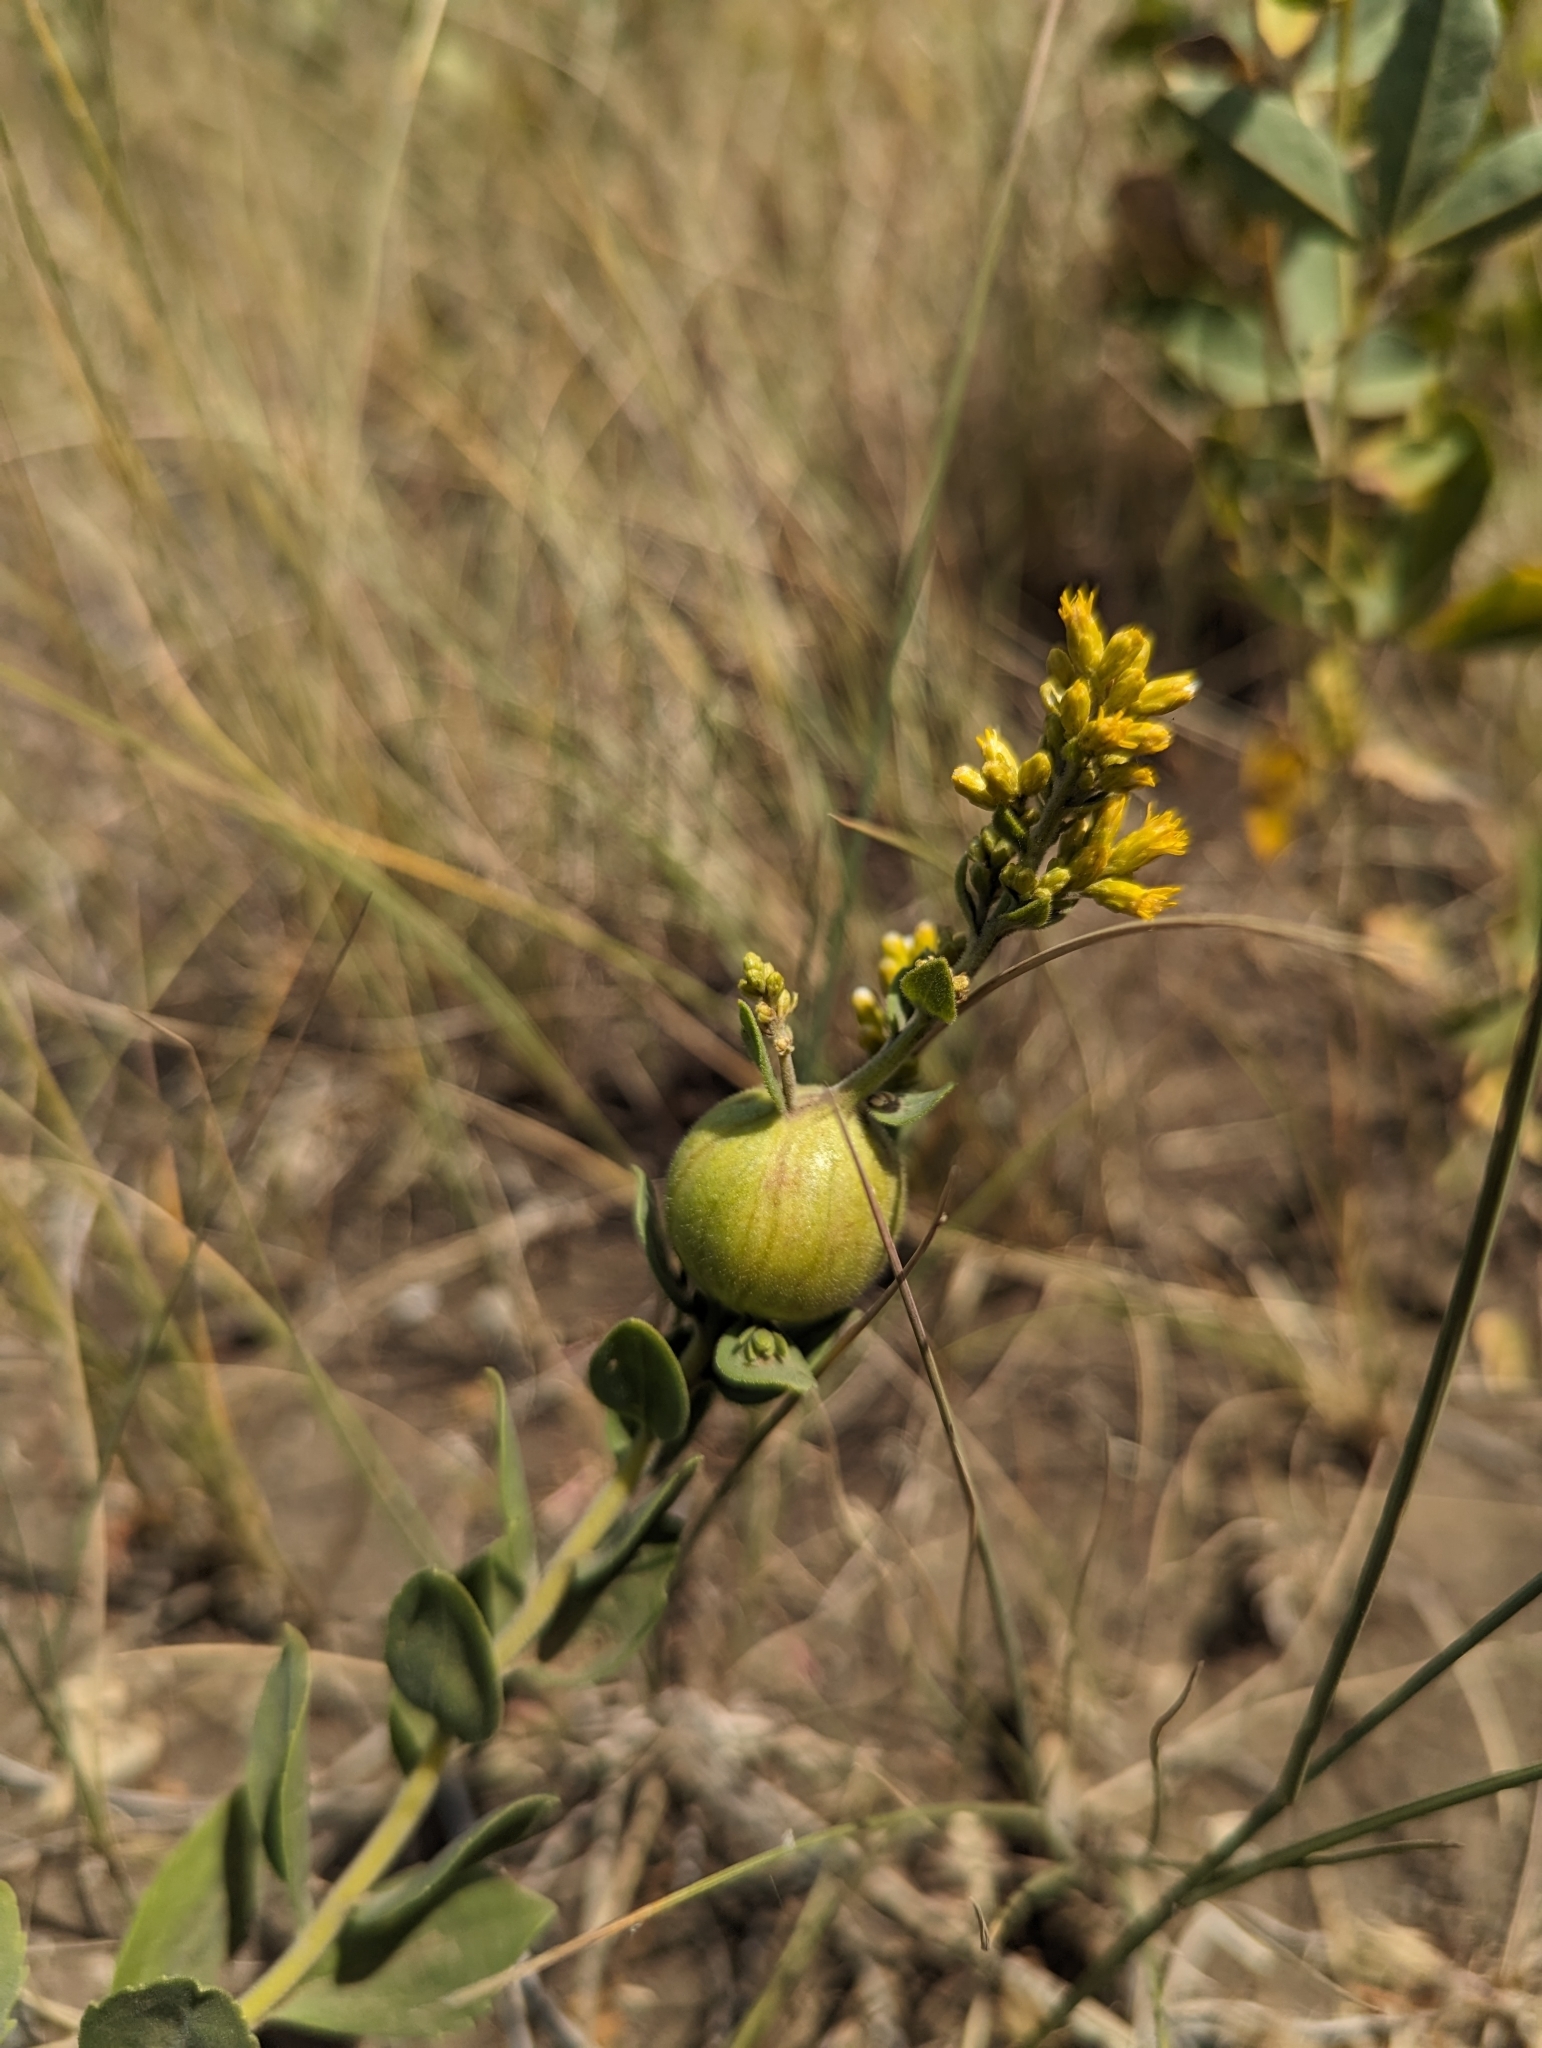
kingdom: Animalia
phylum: Arthropoda
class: Insecta
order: Diptera
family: Tephritidae
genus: Eurosta
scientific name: Eurosta solidaginis
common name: Goldenrod gall fly
